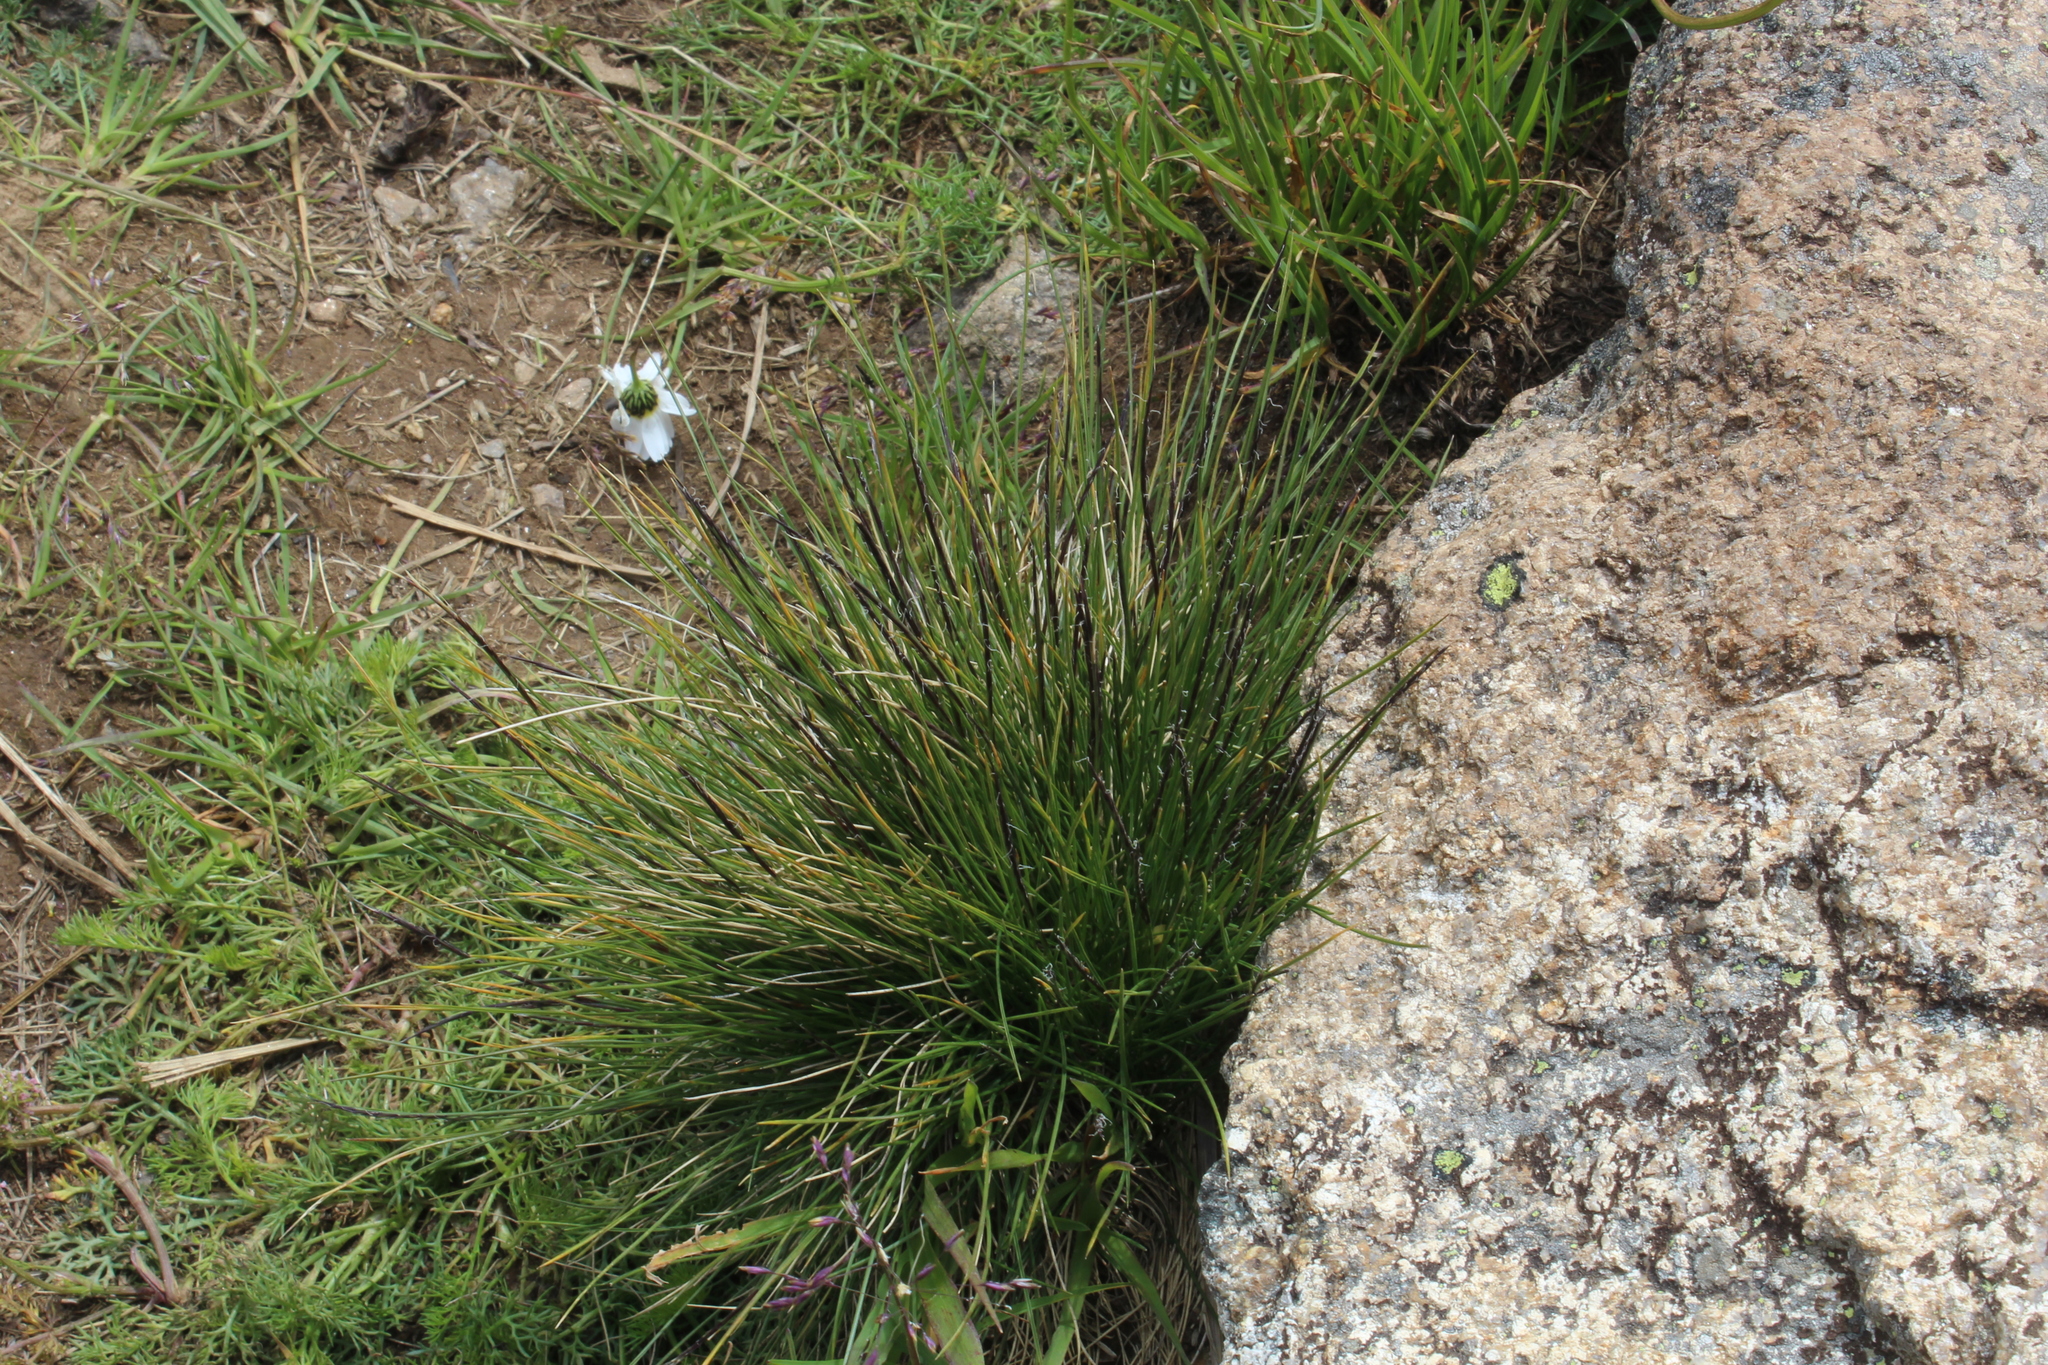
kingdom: Plantae
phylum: Tracheophyta
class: Liliopsida
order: Poales
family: Poaceae
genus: Nardus
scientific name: Nardus stricta
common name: Mat-grass
